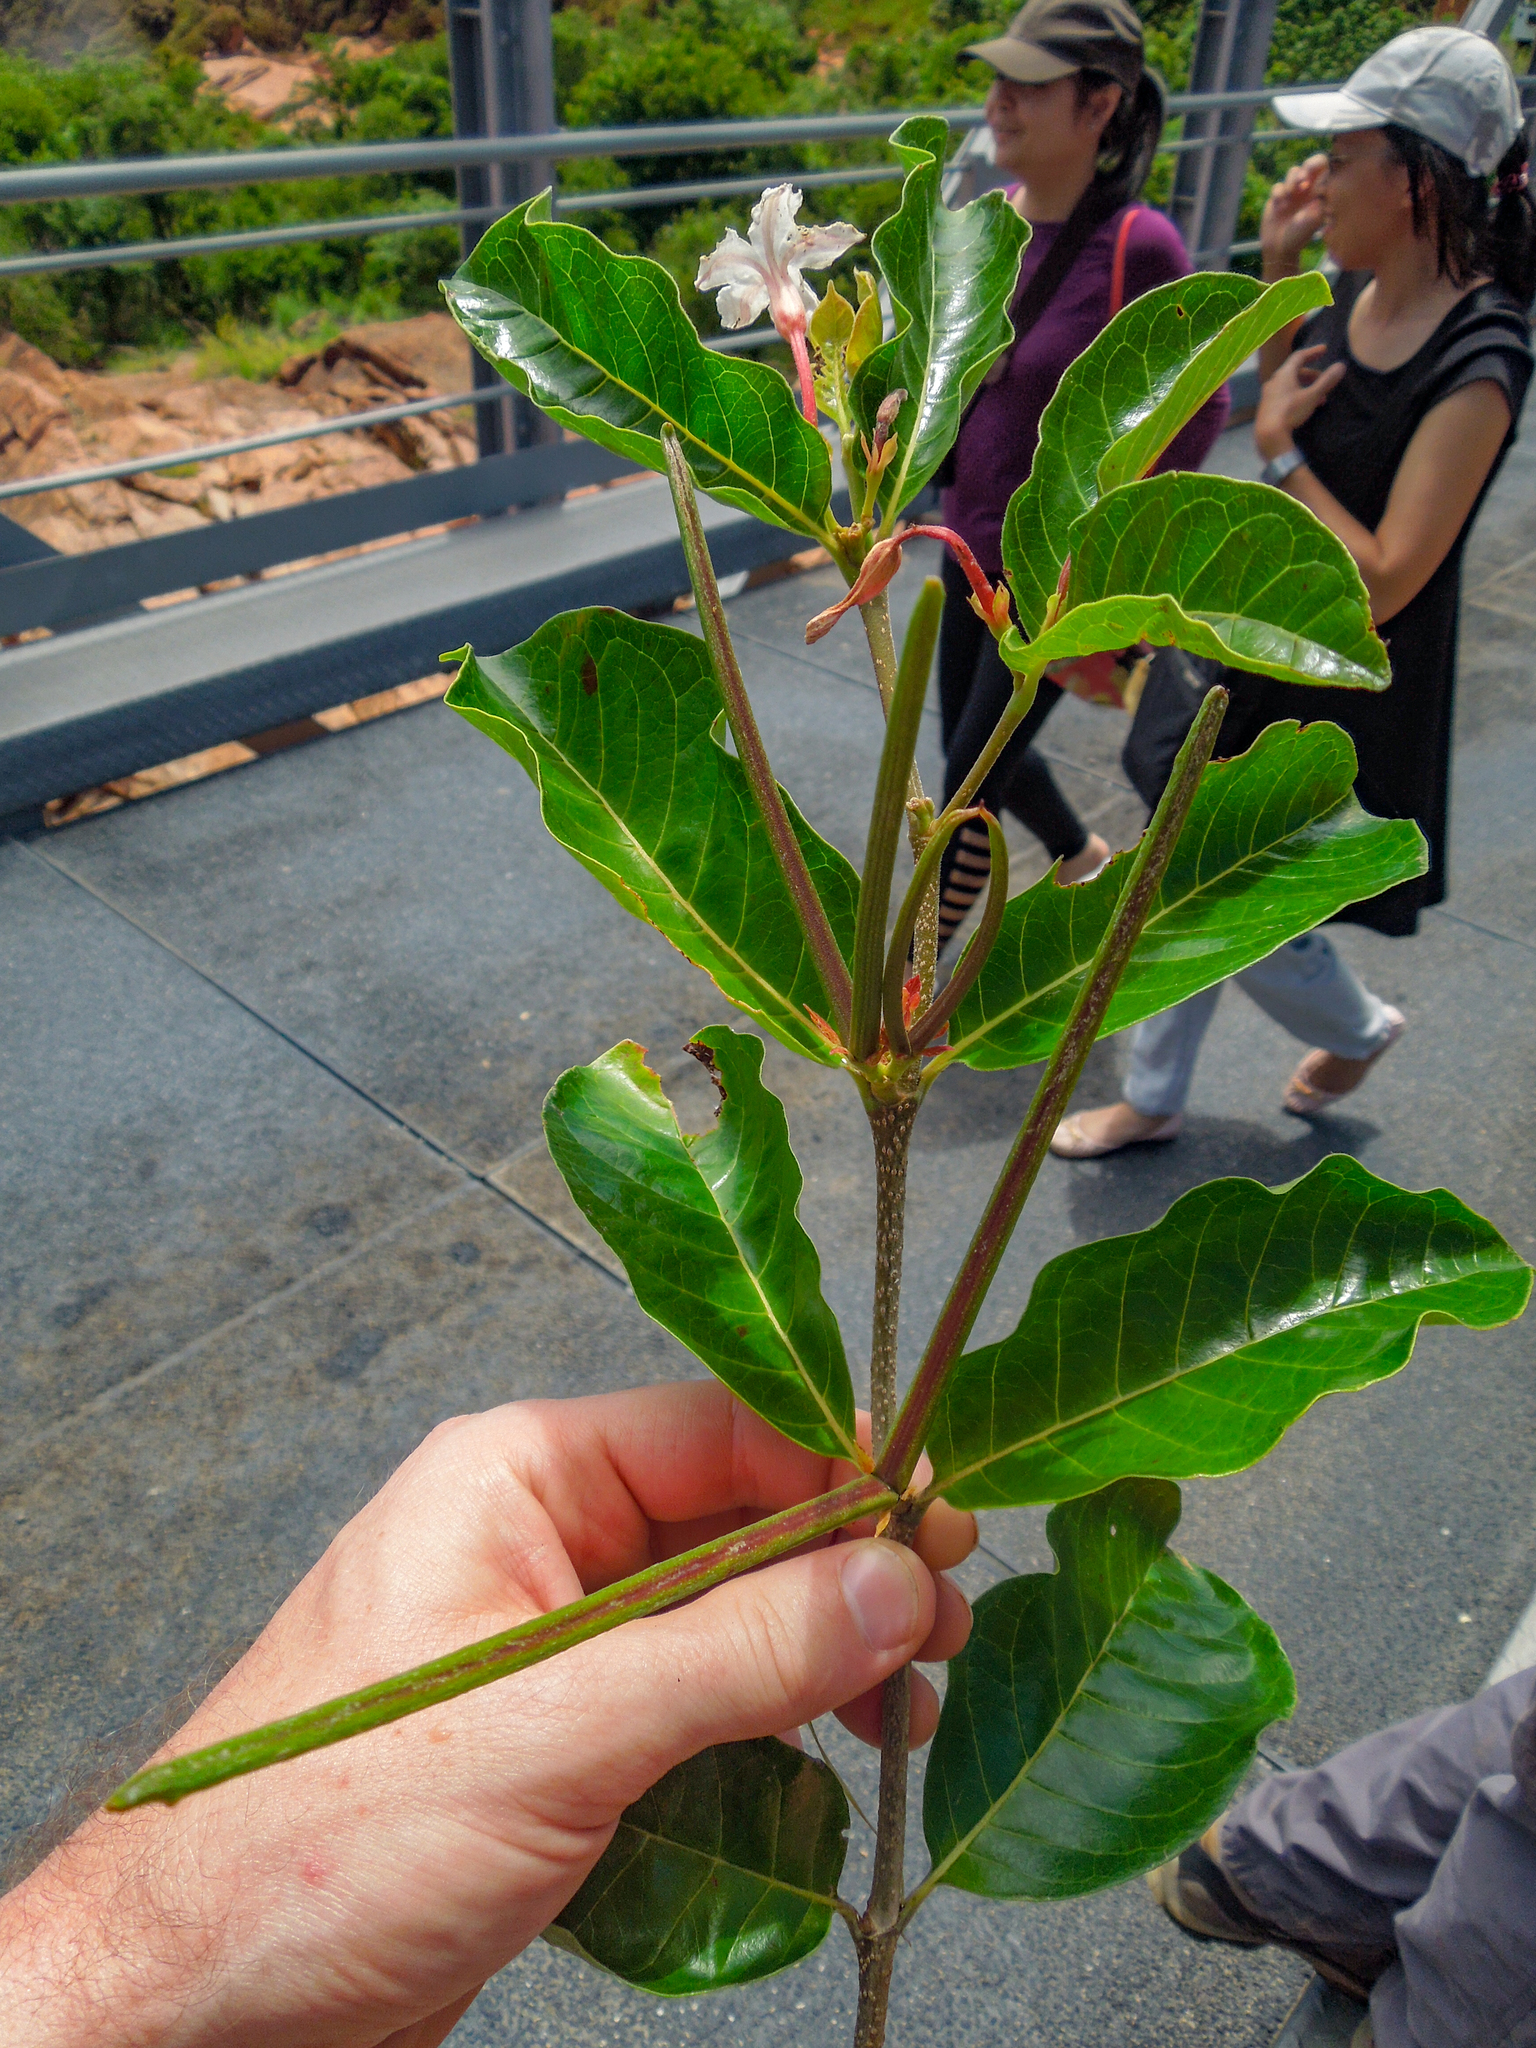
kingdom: Plantae
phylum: Tracheophyta
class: Magnoliopsida
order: Gentianales
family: Apocynaceae
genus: Mascarenhasia
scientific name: Mascarenhasia lisianthiflora
